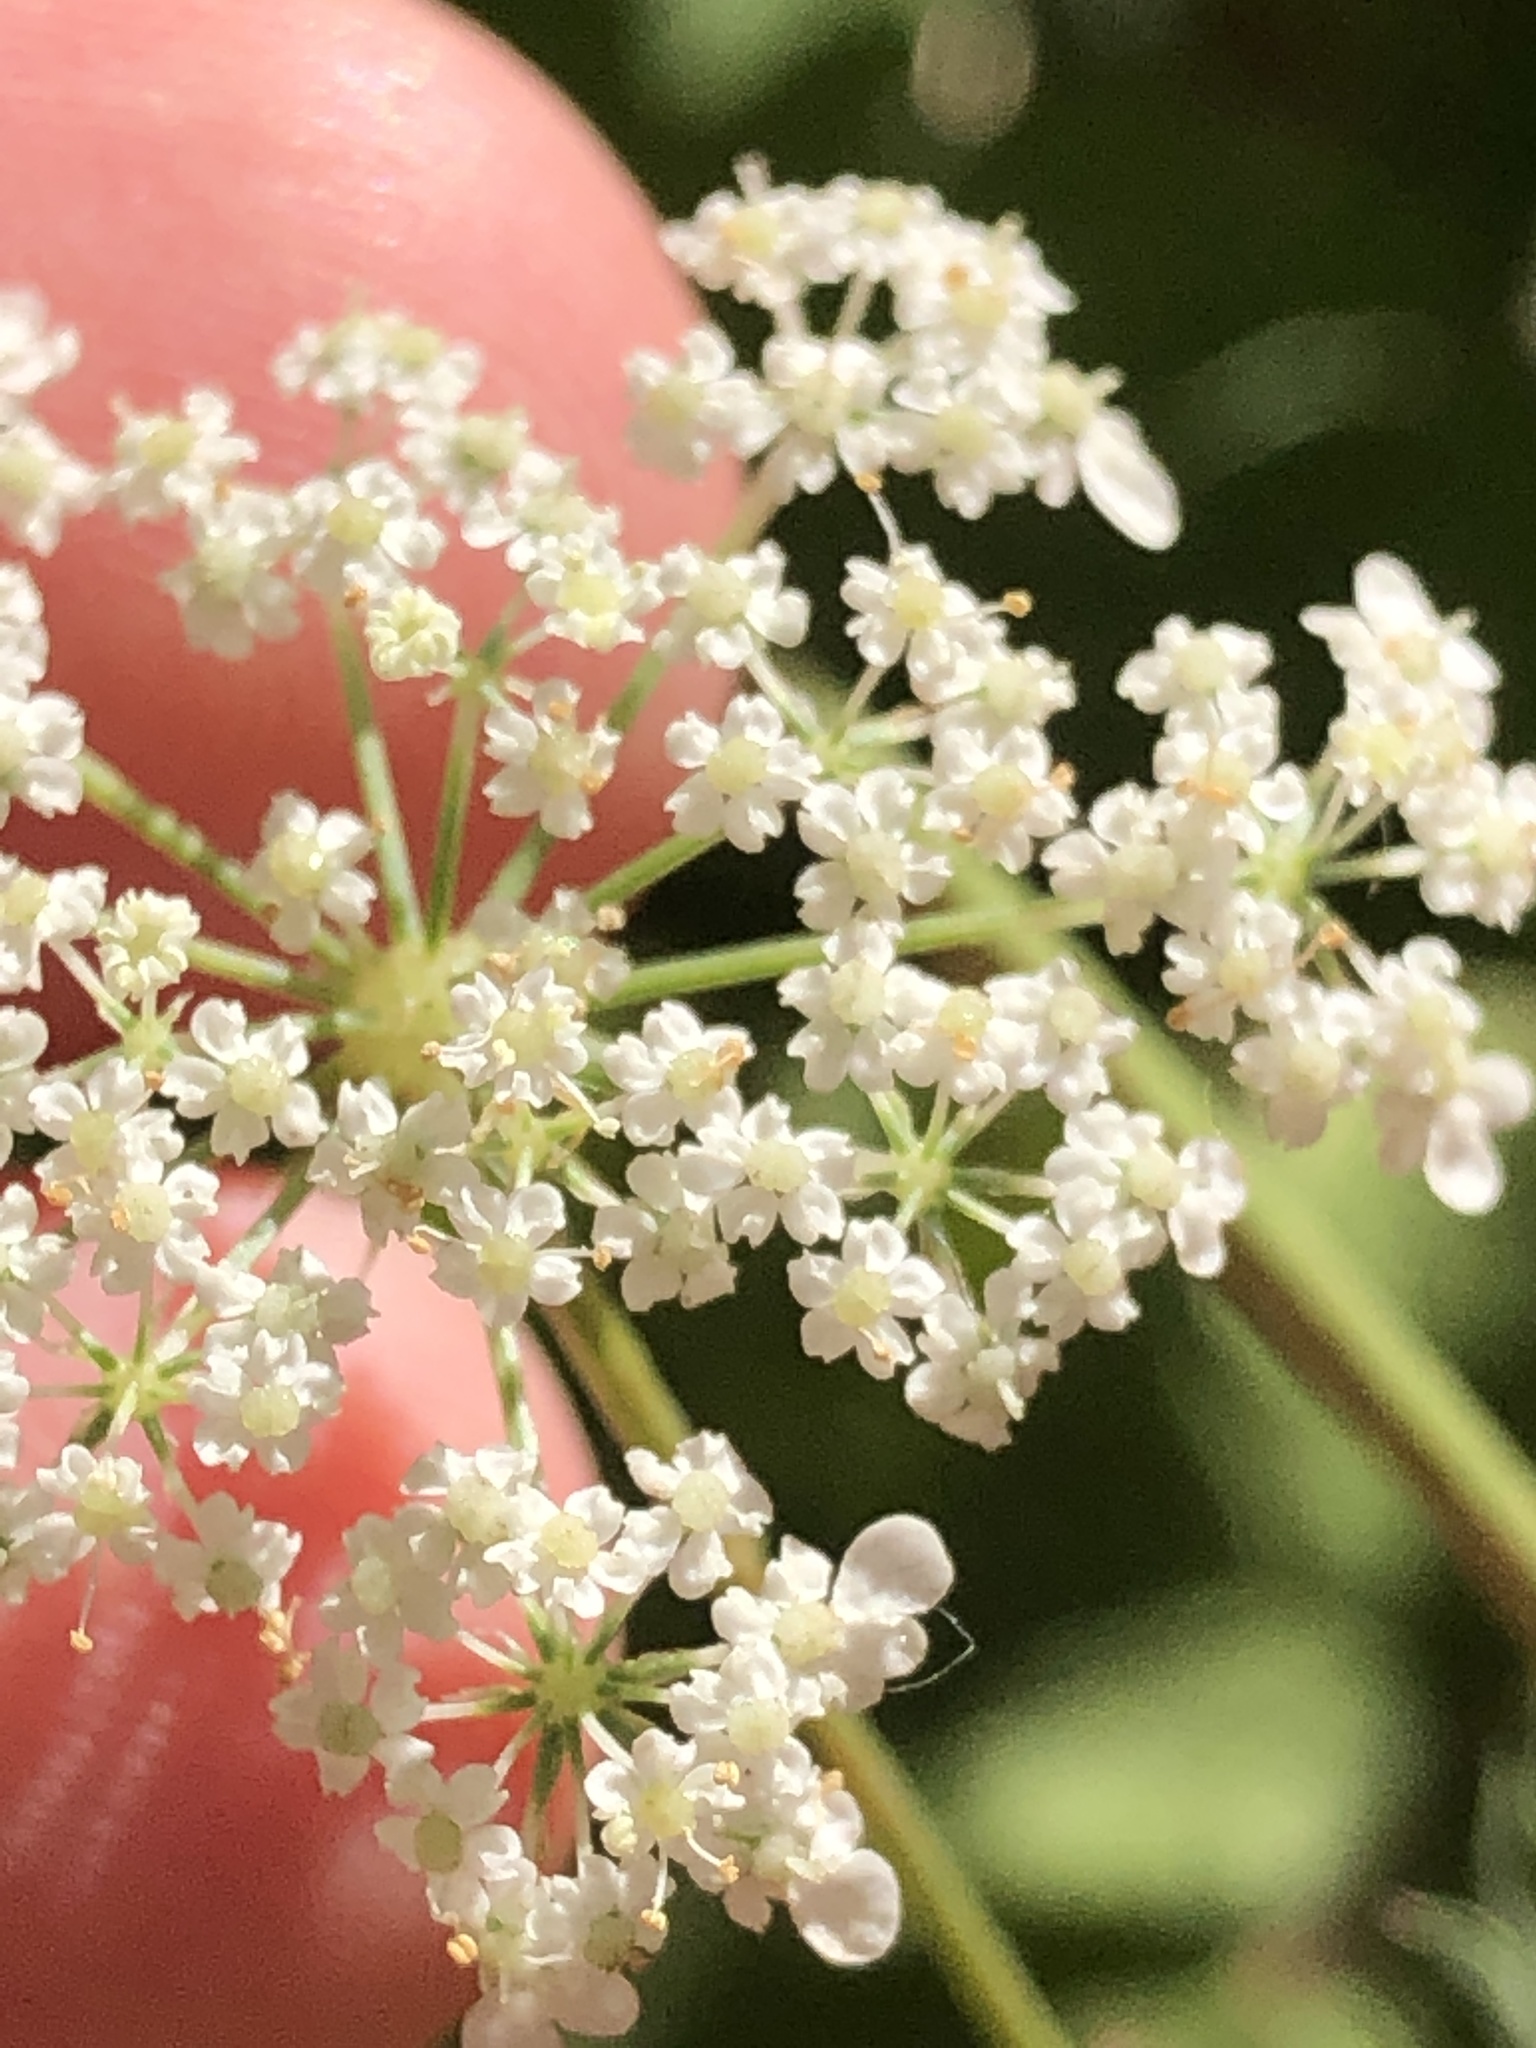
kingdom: Plantae
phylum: Tracheophyta
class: Magnoliopsida
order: Apiales
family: Apiaceae
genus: Daucus
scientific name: Daucus carota
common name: Wild carrot
